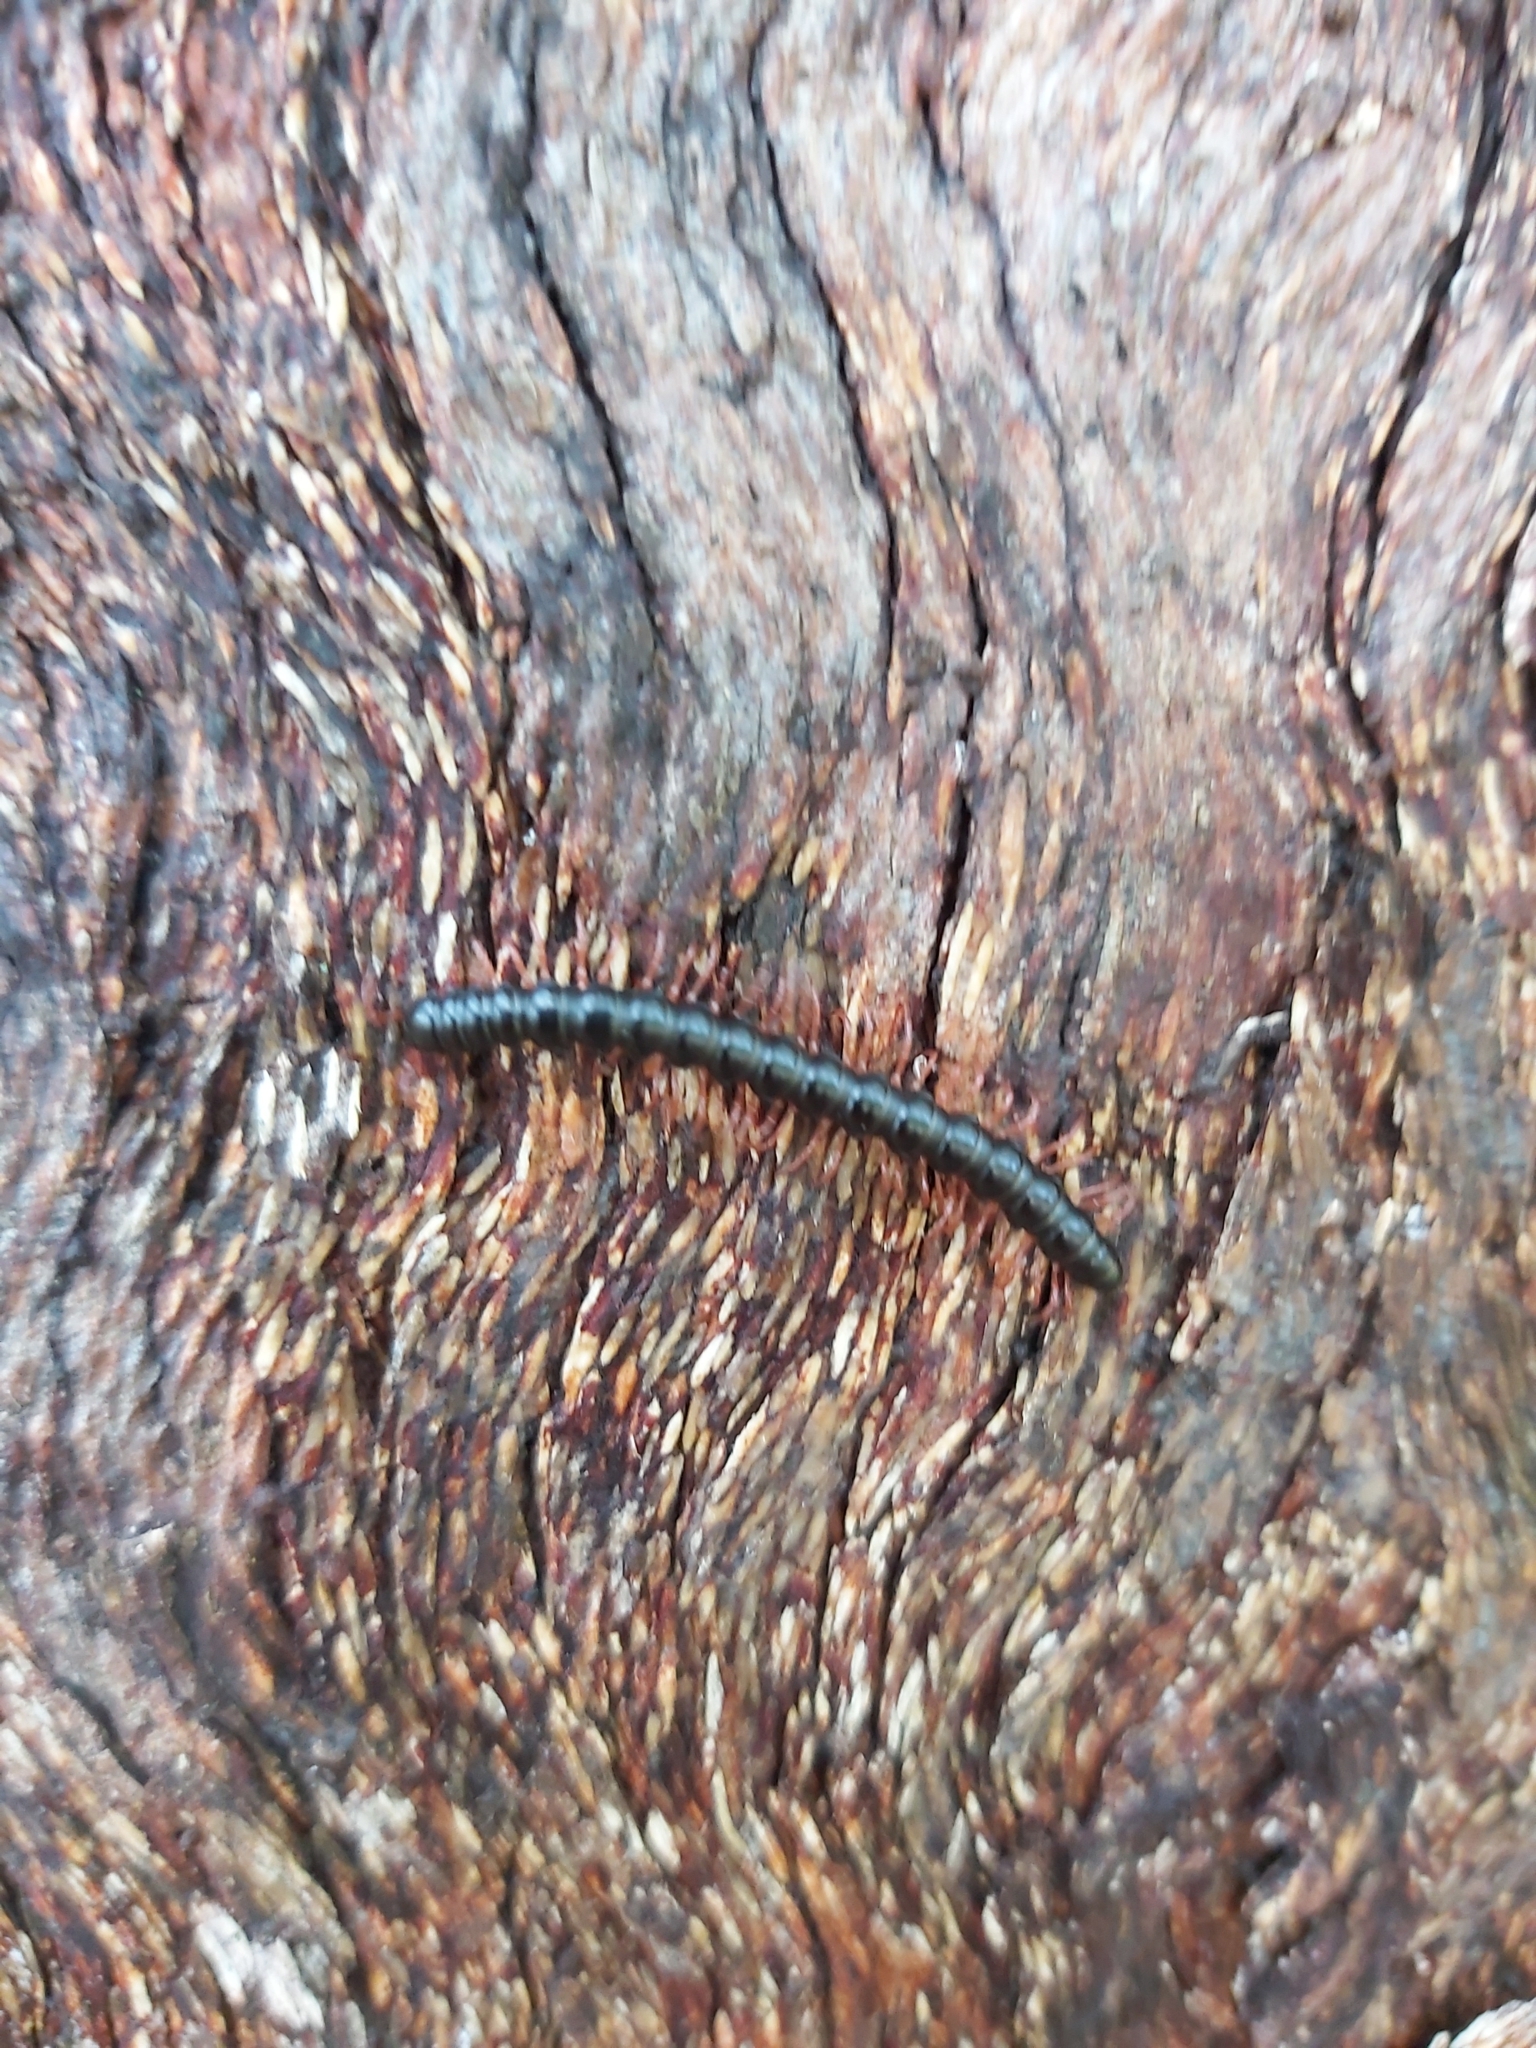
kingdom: Animalia
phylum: Arthropoda
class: Diplopoda
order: Polydesmida
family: Paradoxosomatidae
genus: Heterocladosoma
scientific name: Heterocladosoma
